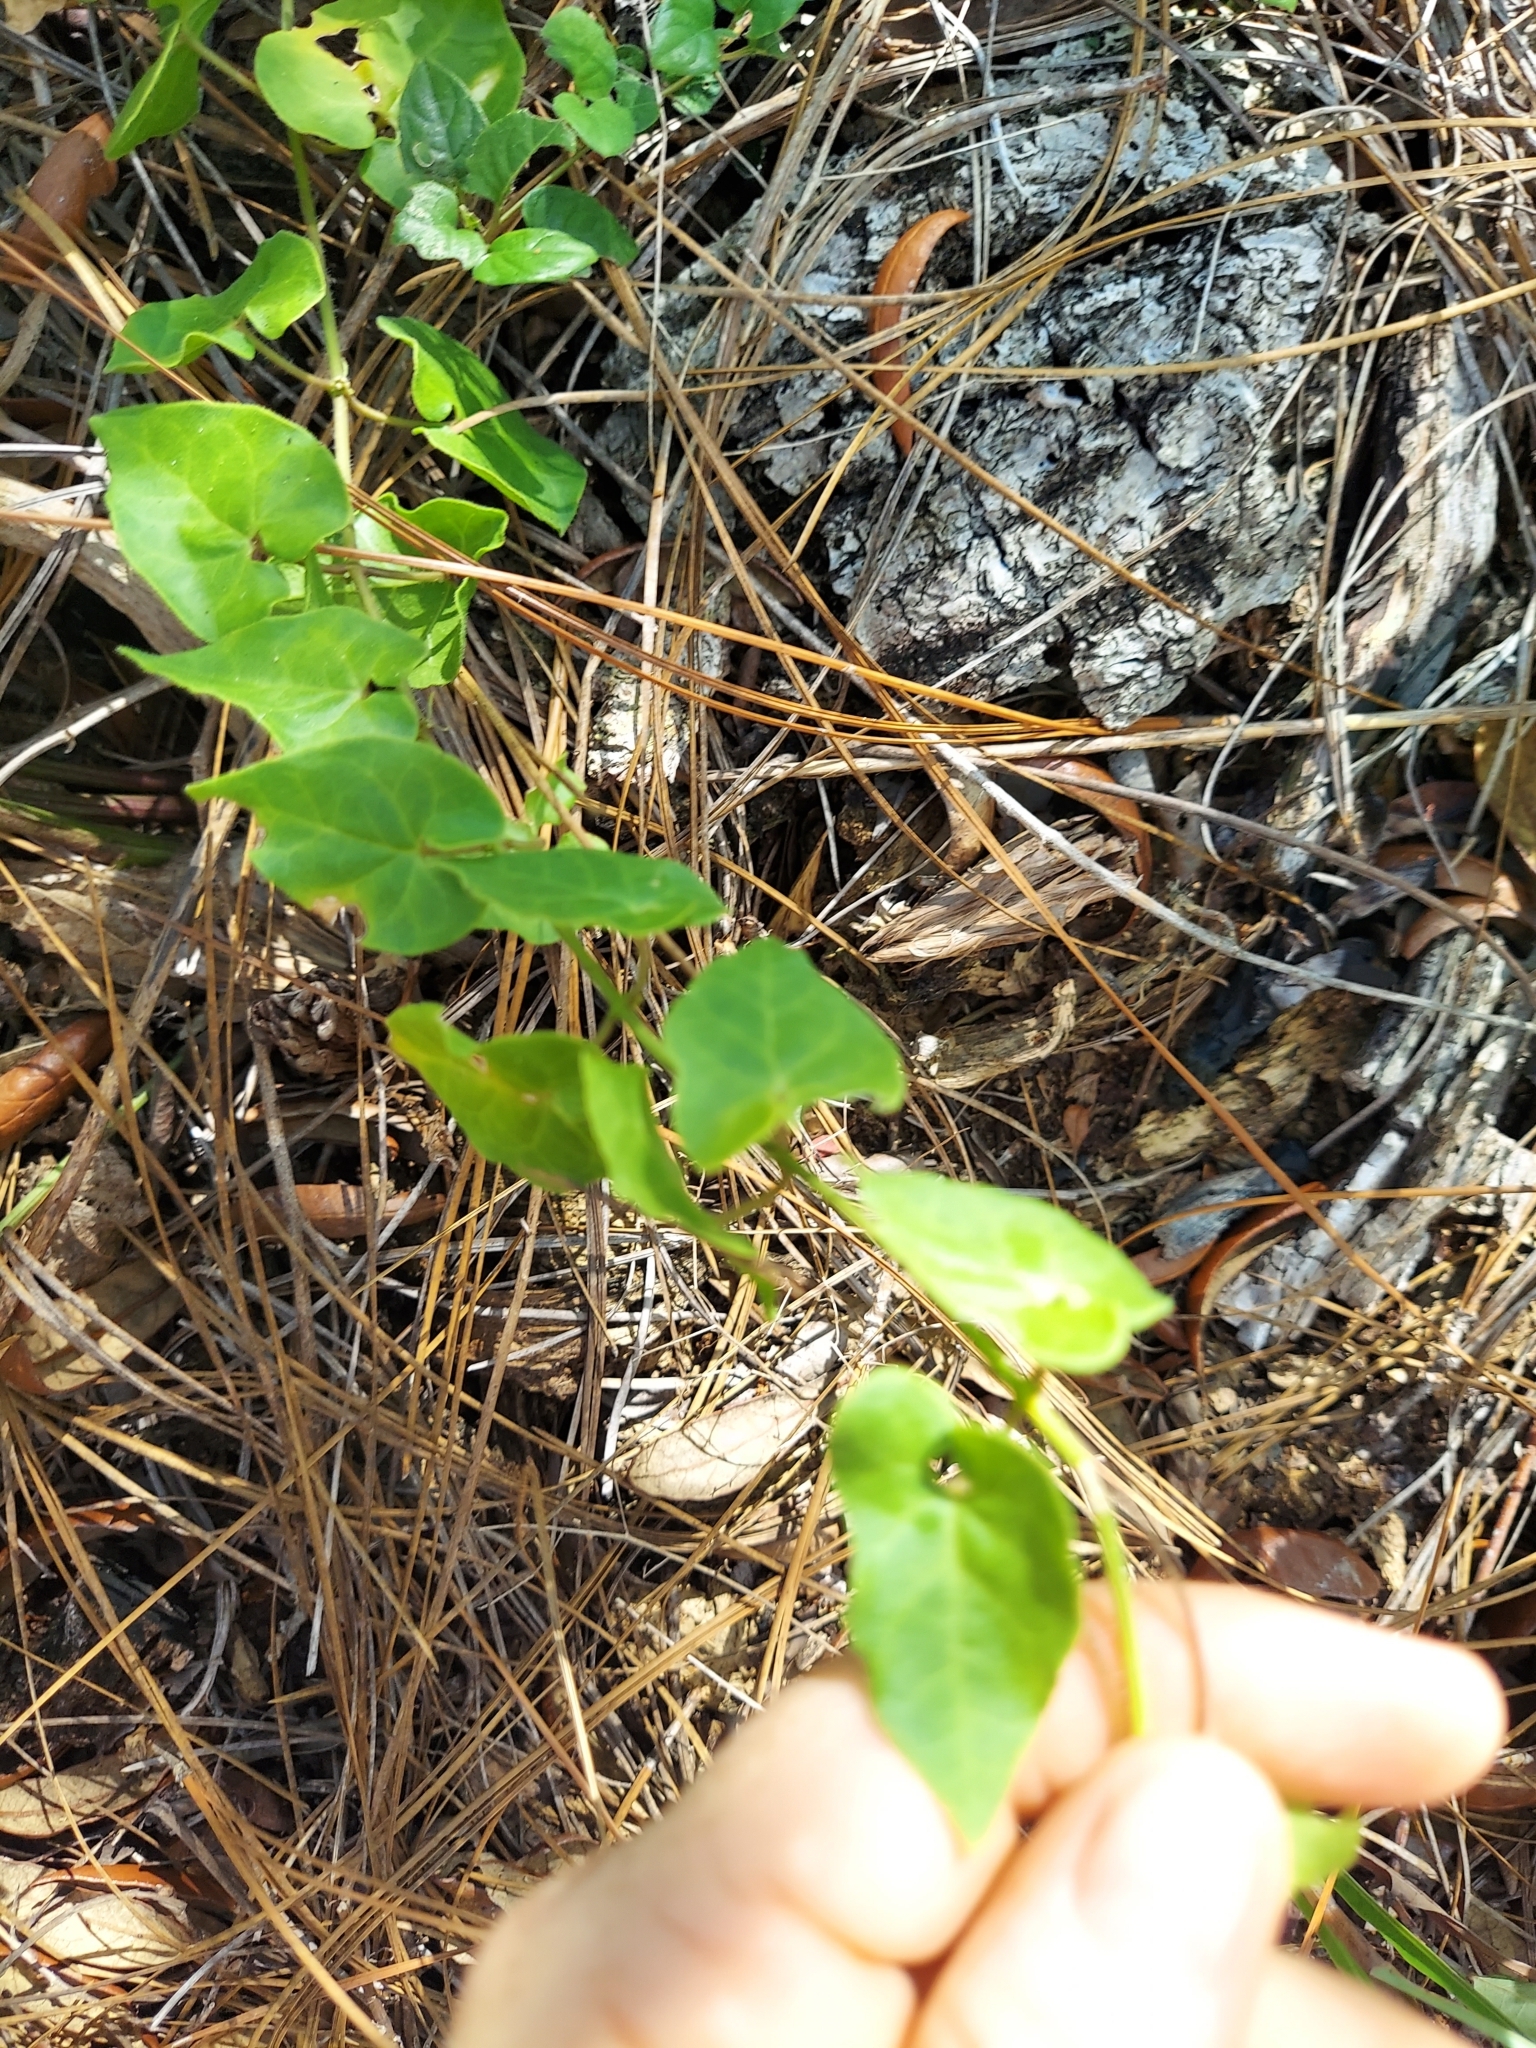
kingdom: Plantae
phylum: Tracheophyta
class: Magnoliopsida
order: Gentianales
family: Apocynaceae
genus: Chthamalia
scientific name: Chthamalia pubiflora
